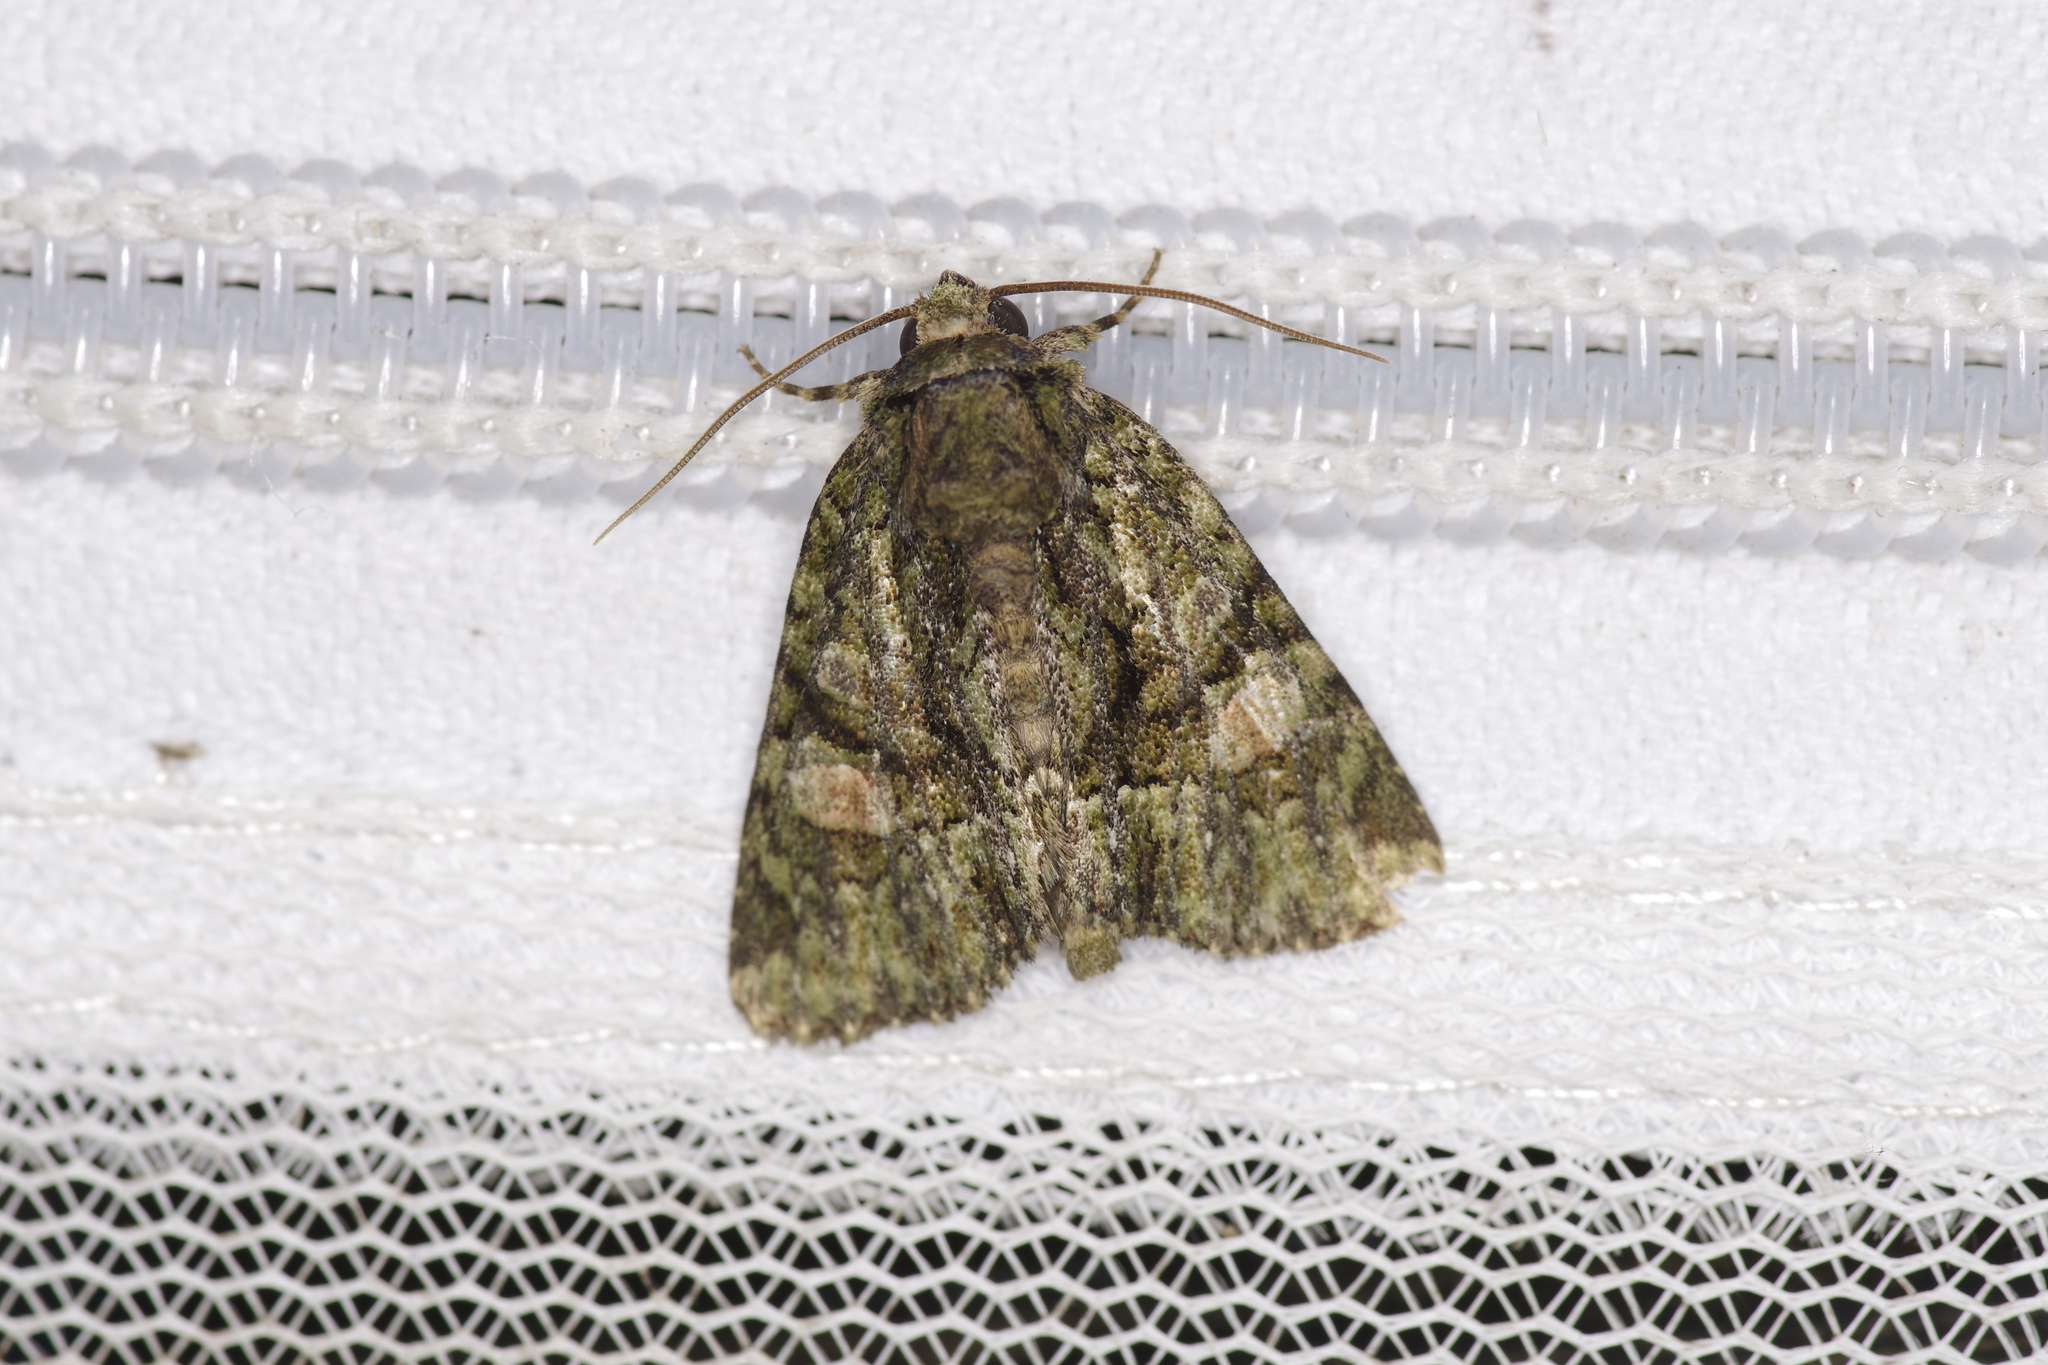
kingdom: Animalia
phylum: Arthropoda
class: Insecta
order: Lepidoptera
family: Noctuidae
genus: Phosphila
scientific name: Phosphila miselioides
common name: Spotted phosphila moth
